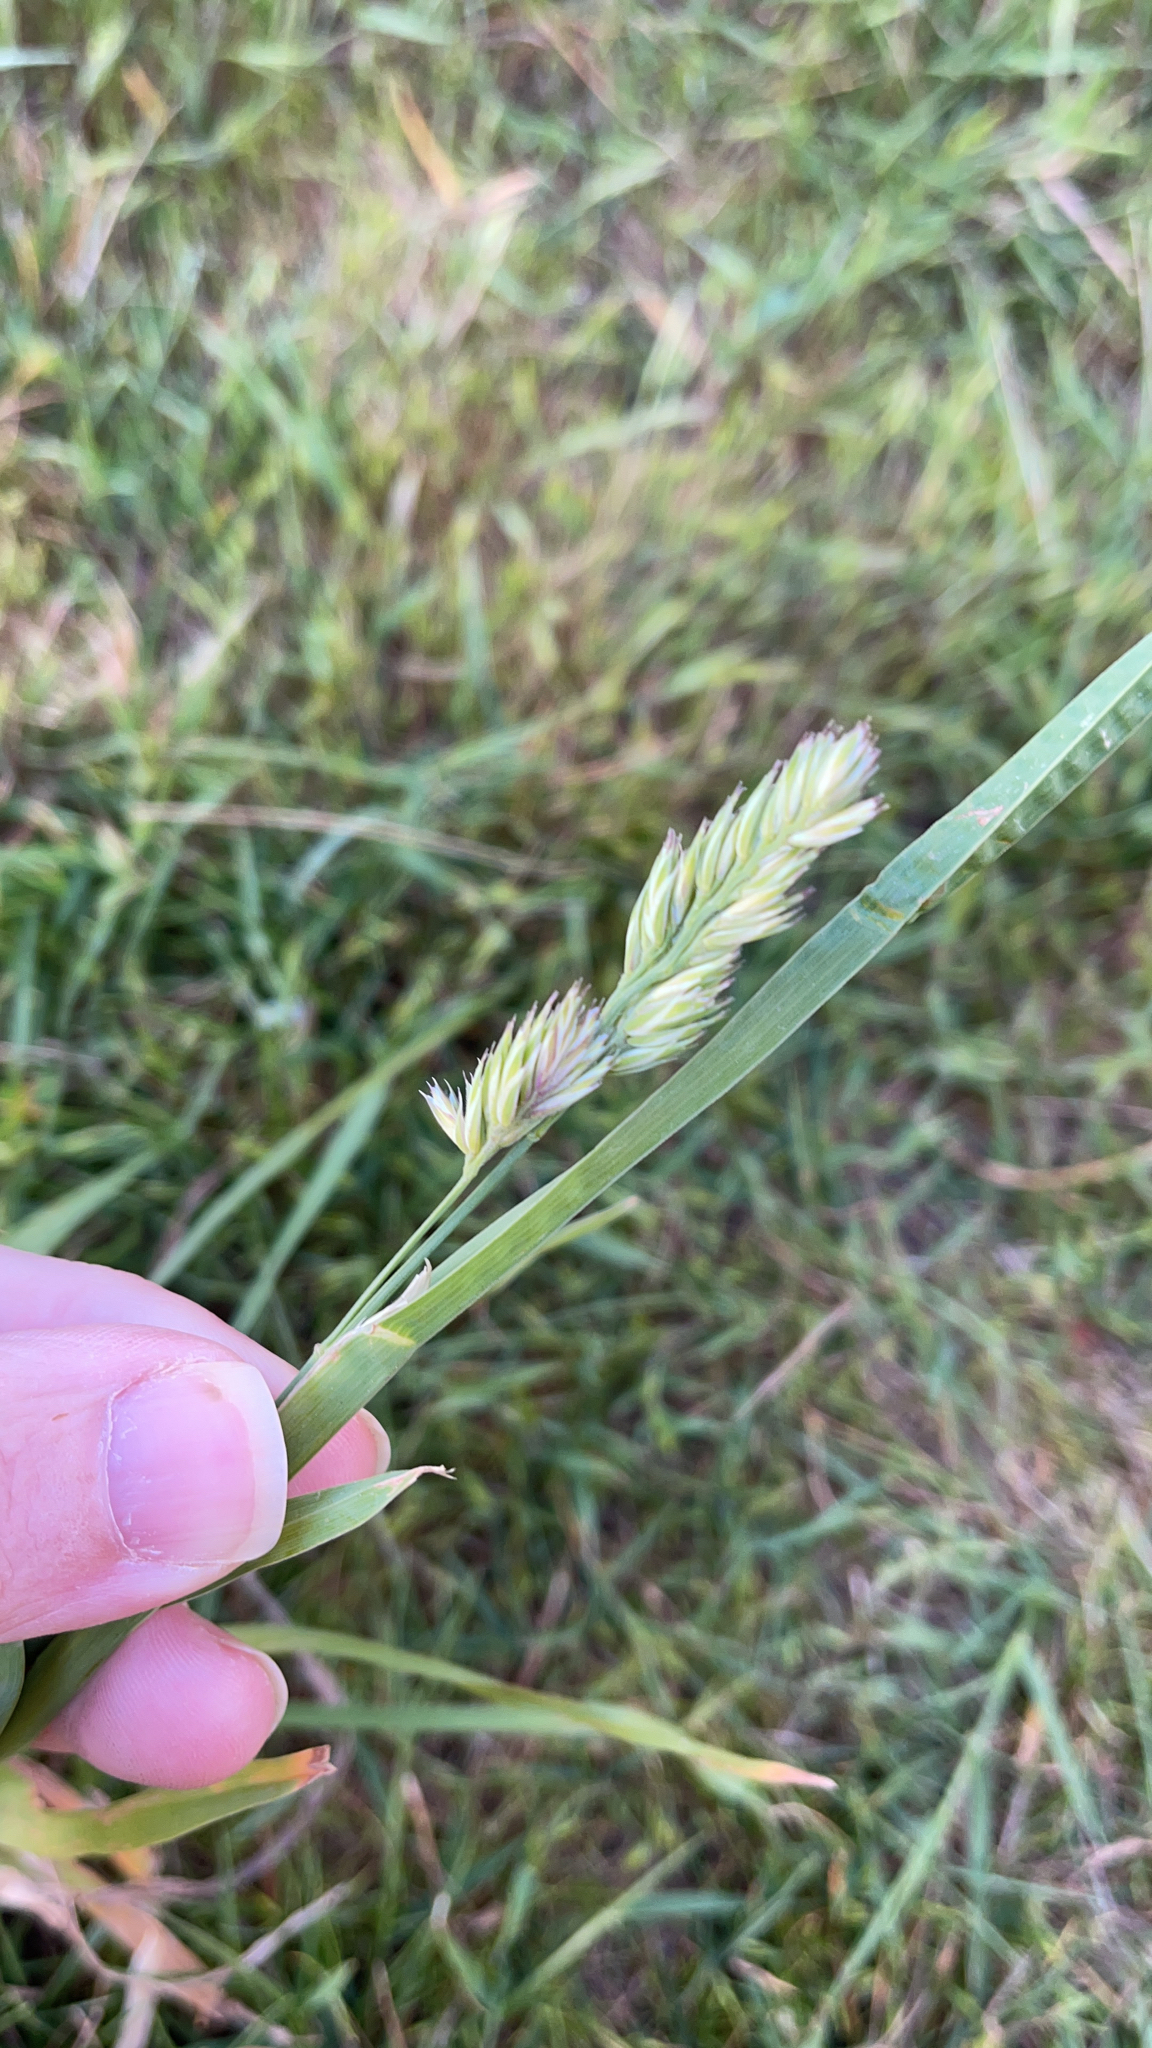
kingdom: Plantae
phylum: Tracheophyta
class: Liliopsida
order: Poales
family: Poaceae
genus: Dactylis
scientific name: Dactylis glomerata
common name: Orchardgrass
